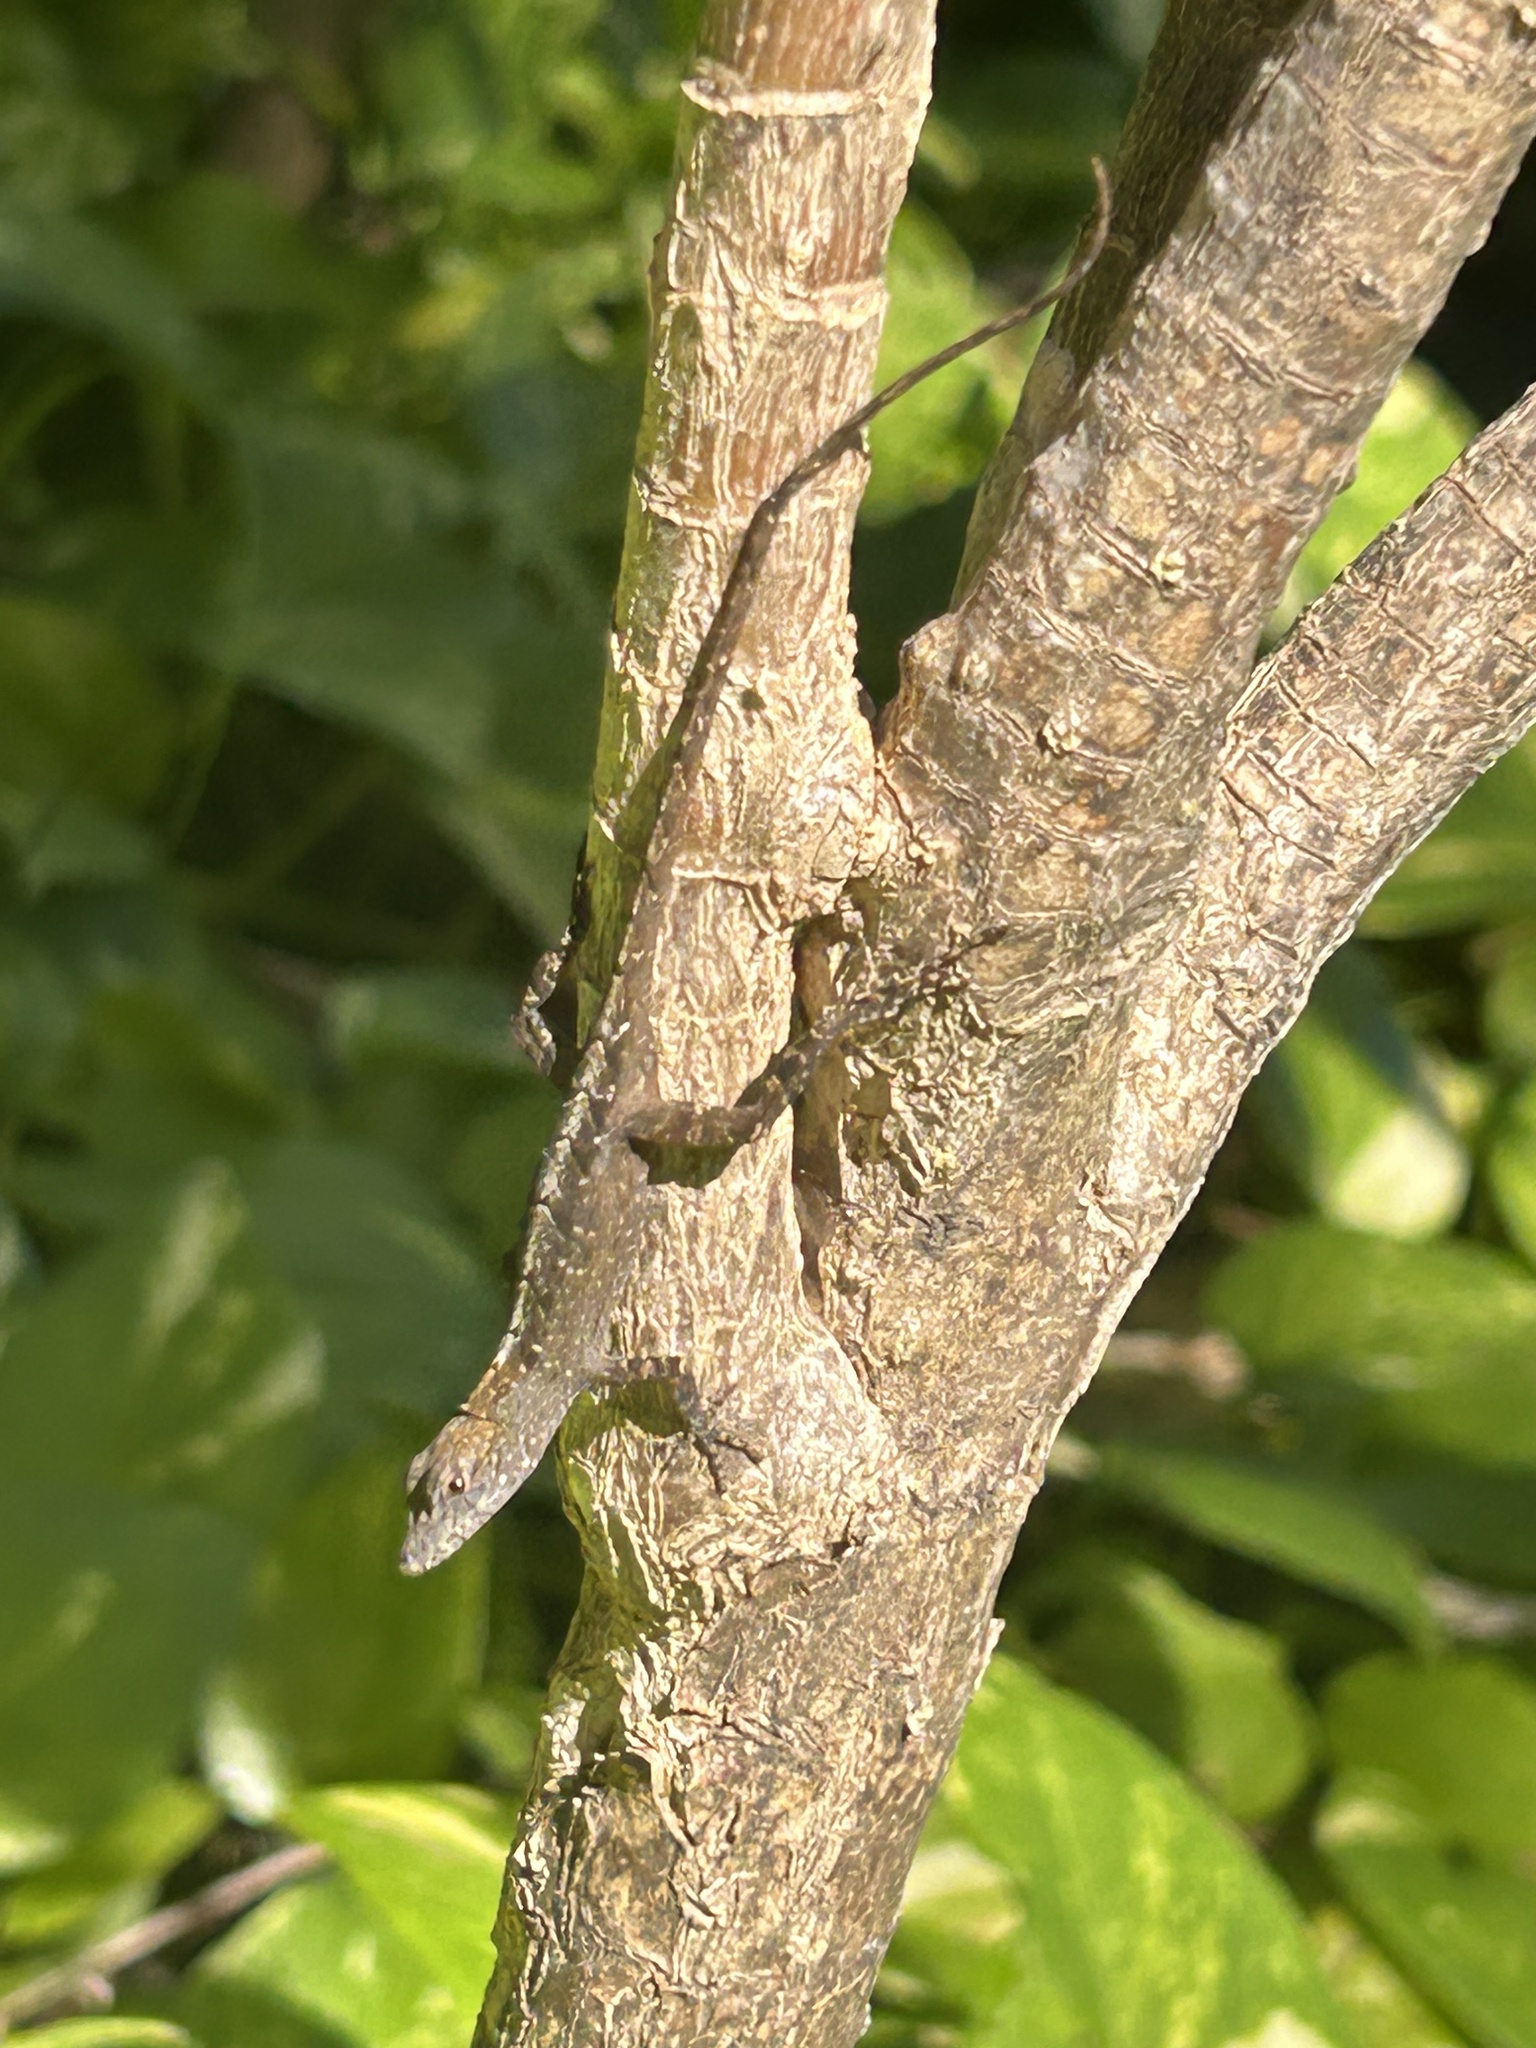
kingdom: Animalia
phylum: Chordata
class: Squamata
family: Dactyloidae
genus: Anolis
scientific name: Anolis sagrei
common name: Brown anole
